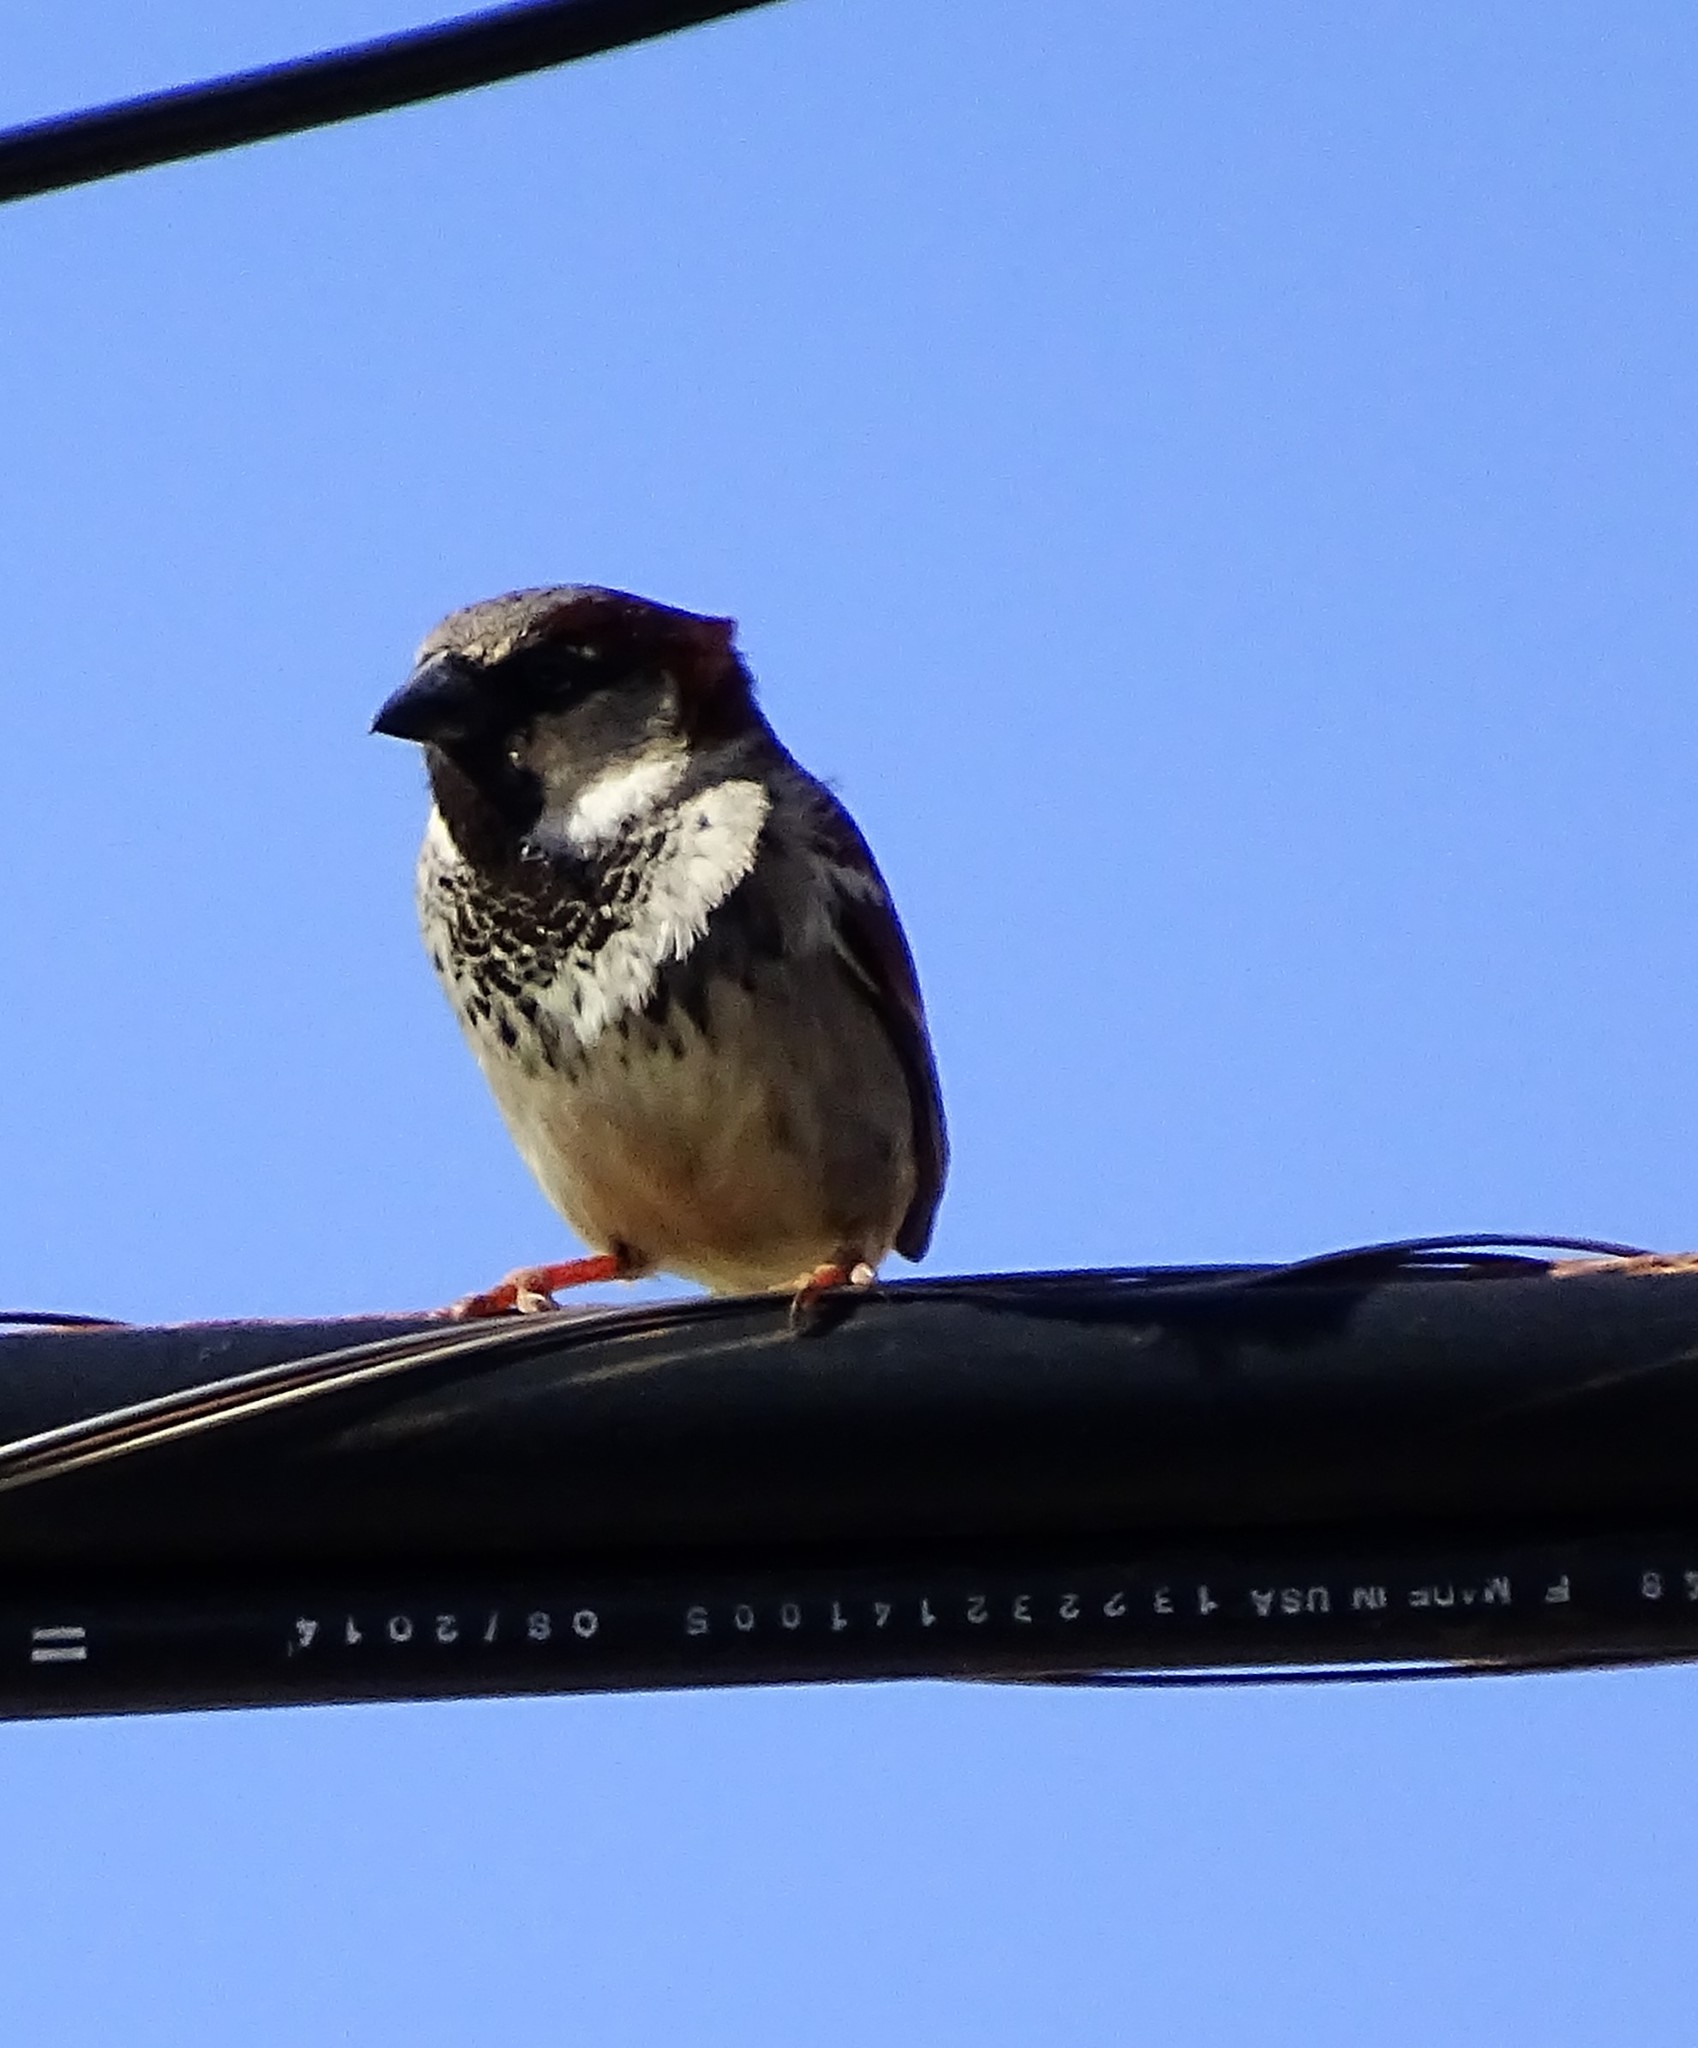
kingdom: Animalia
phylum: Chordata
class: Aves
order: Passeriformes
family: Passeridae
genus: Passer
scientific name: Passer domesticus
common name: House sparrow
